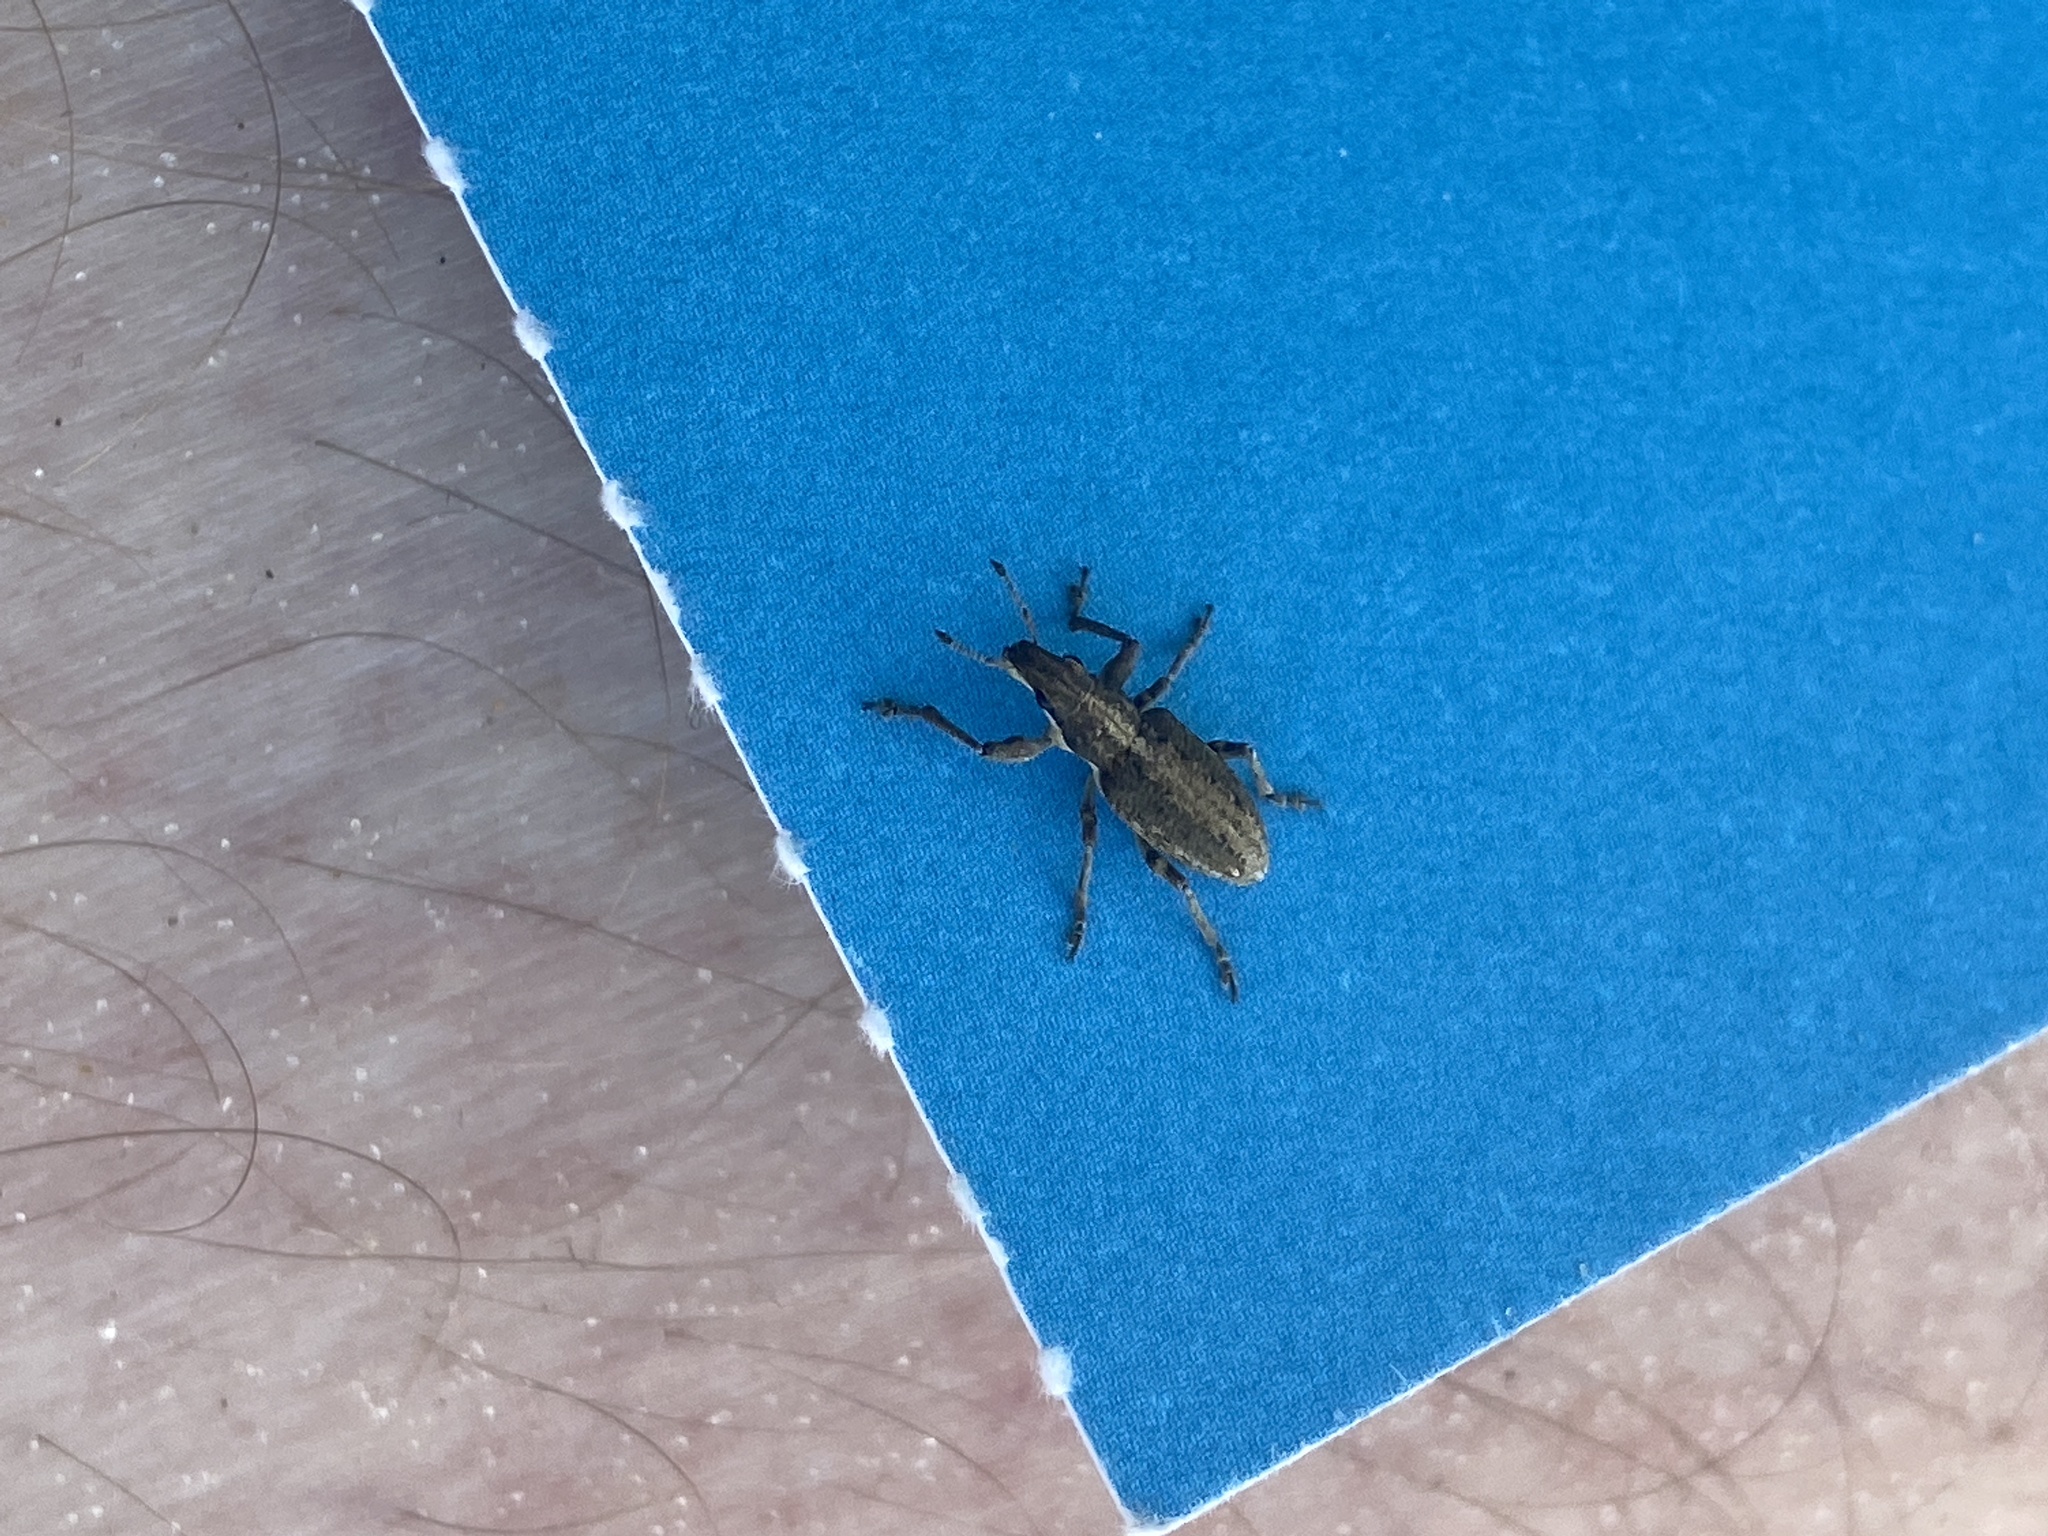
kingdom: Animalia
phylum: Arthropoda
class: Insecta
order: Coleoptera
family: Curculionidae
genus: Charagmus
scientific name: Charagmus griseus
